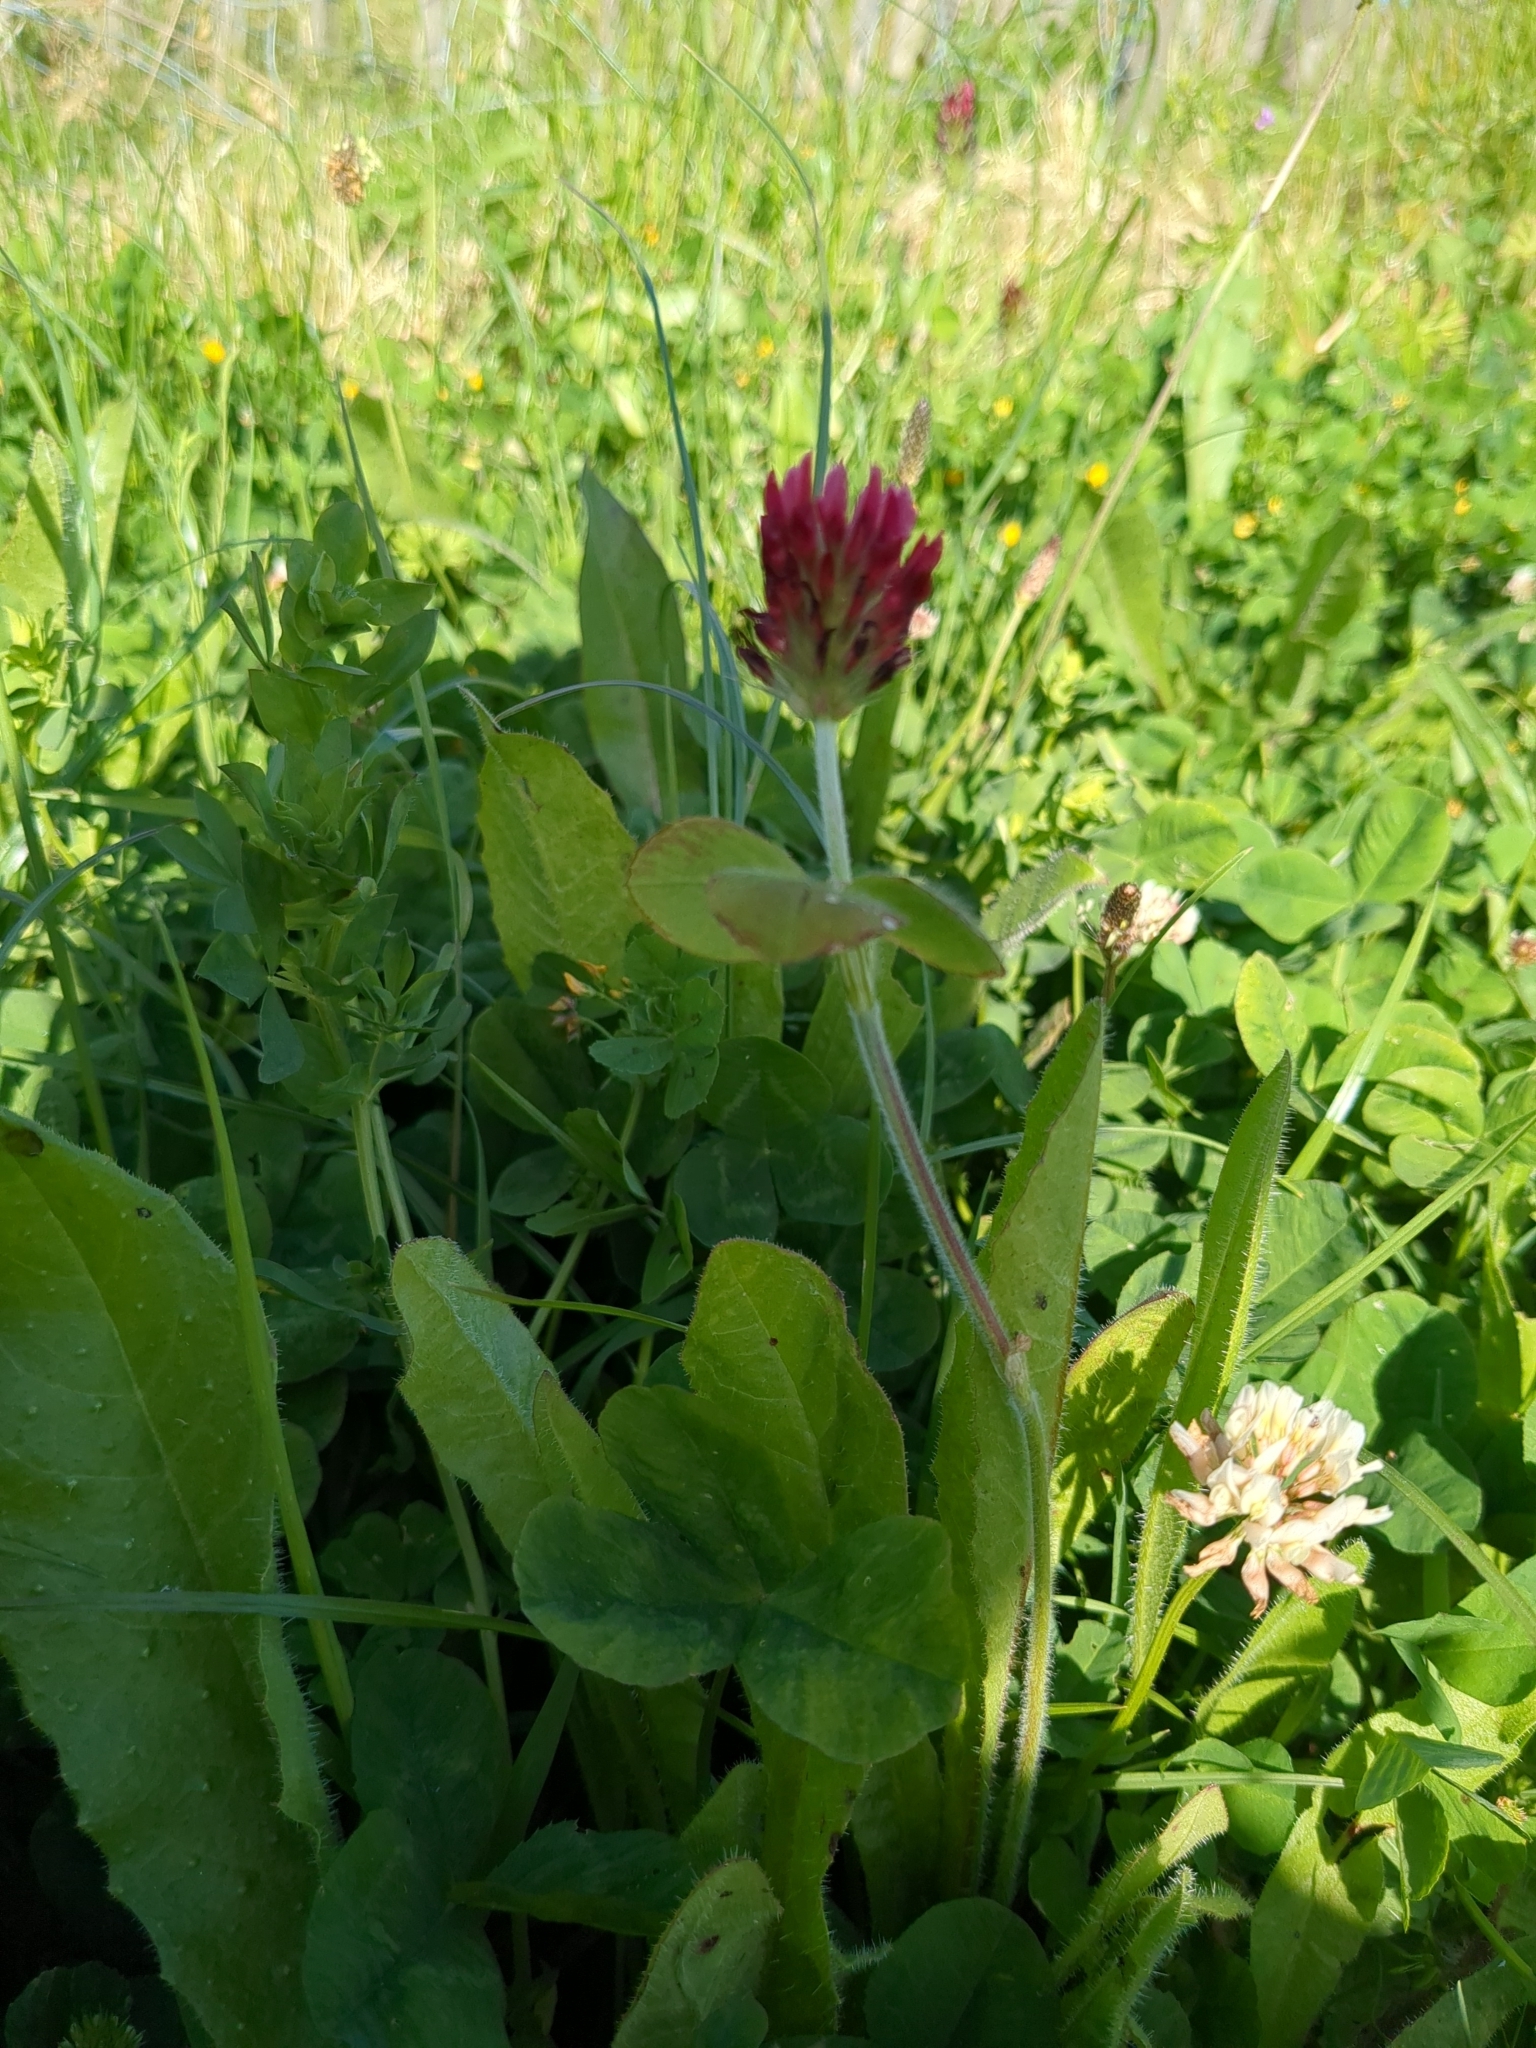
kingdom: Plantae
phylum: Tracheophyta
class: Magnoliopsida
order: Fabales
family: Fabaceae
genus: Trifolium
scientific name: Trifolium incarnatum
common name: Crimson clover
